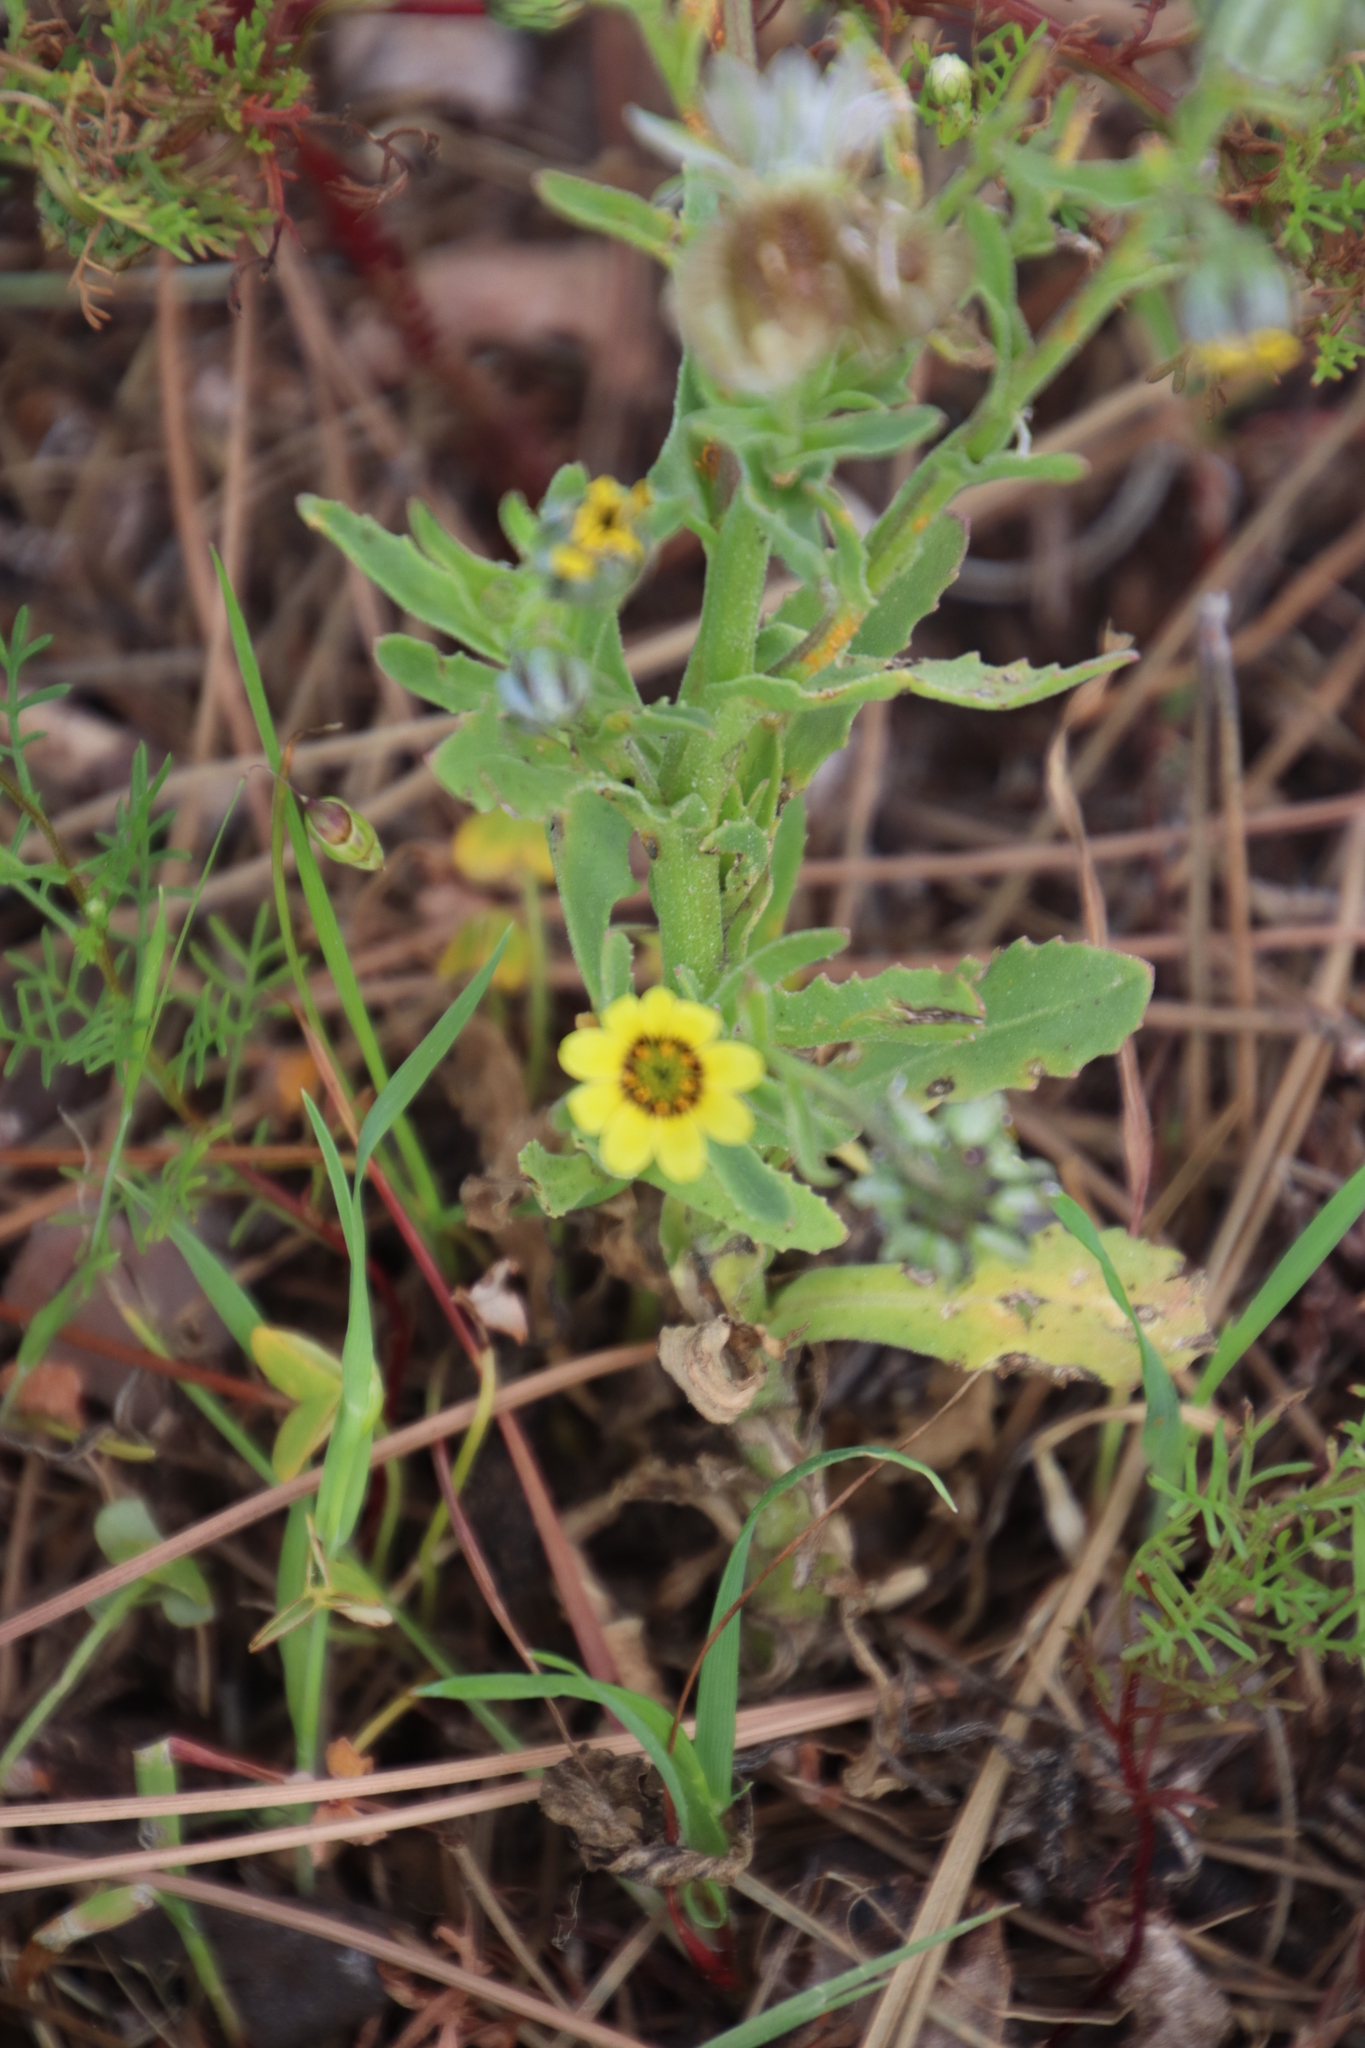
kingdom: Plantae
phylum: Tracheophyta
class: Magnoliopsida
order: Asterales
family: Asteraceae
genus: Osteospermum
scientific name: Osteospermum monstrosum
